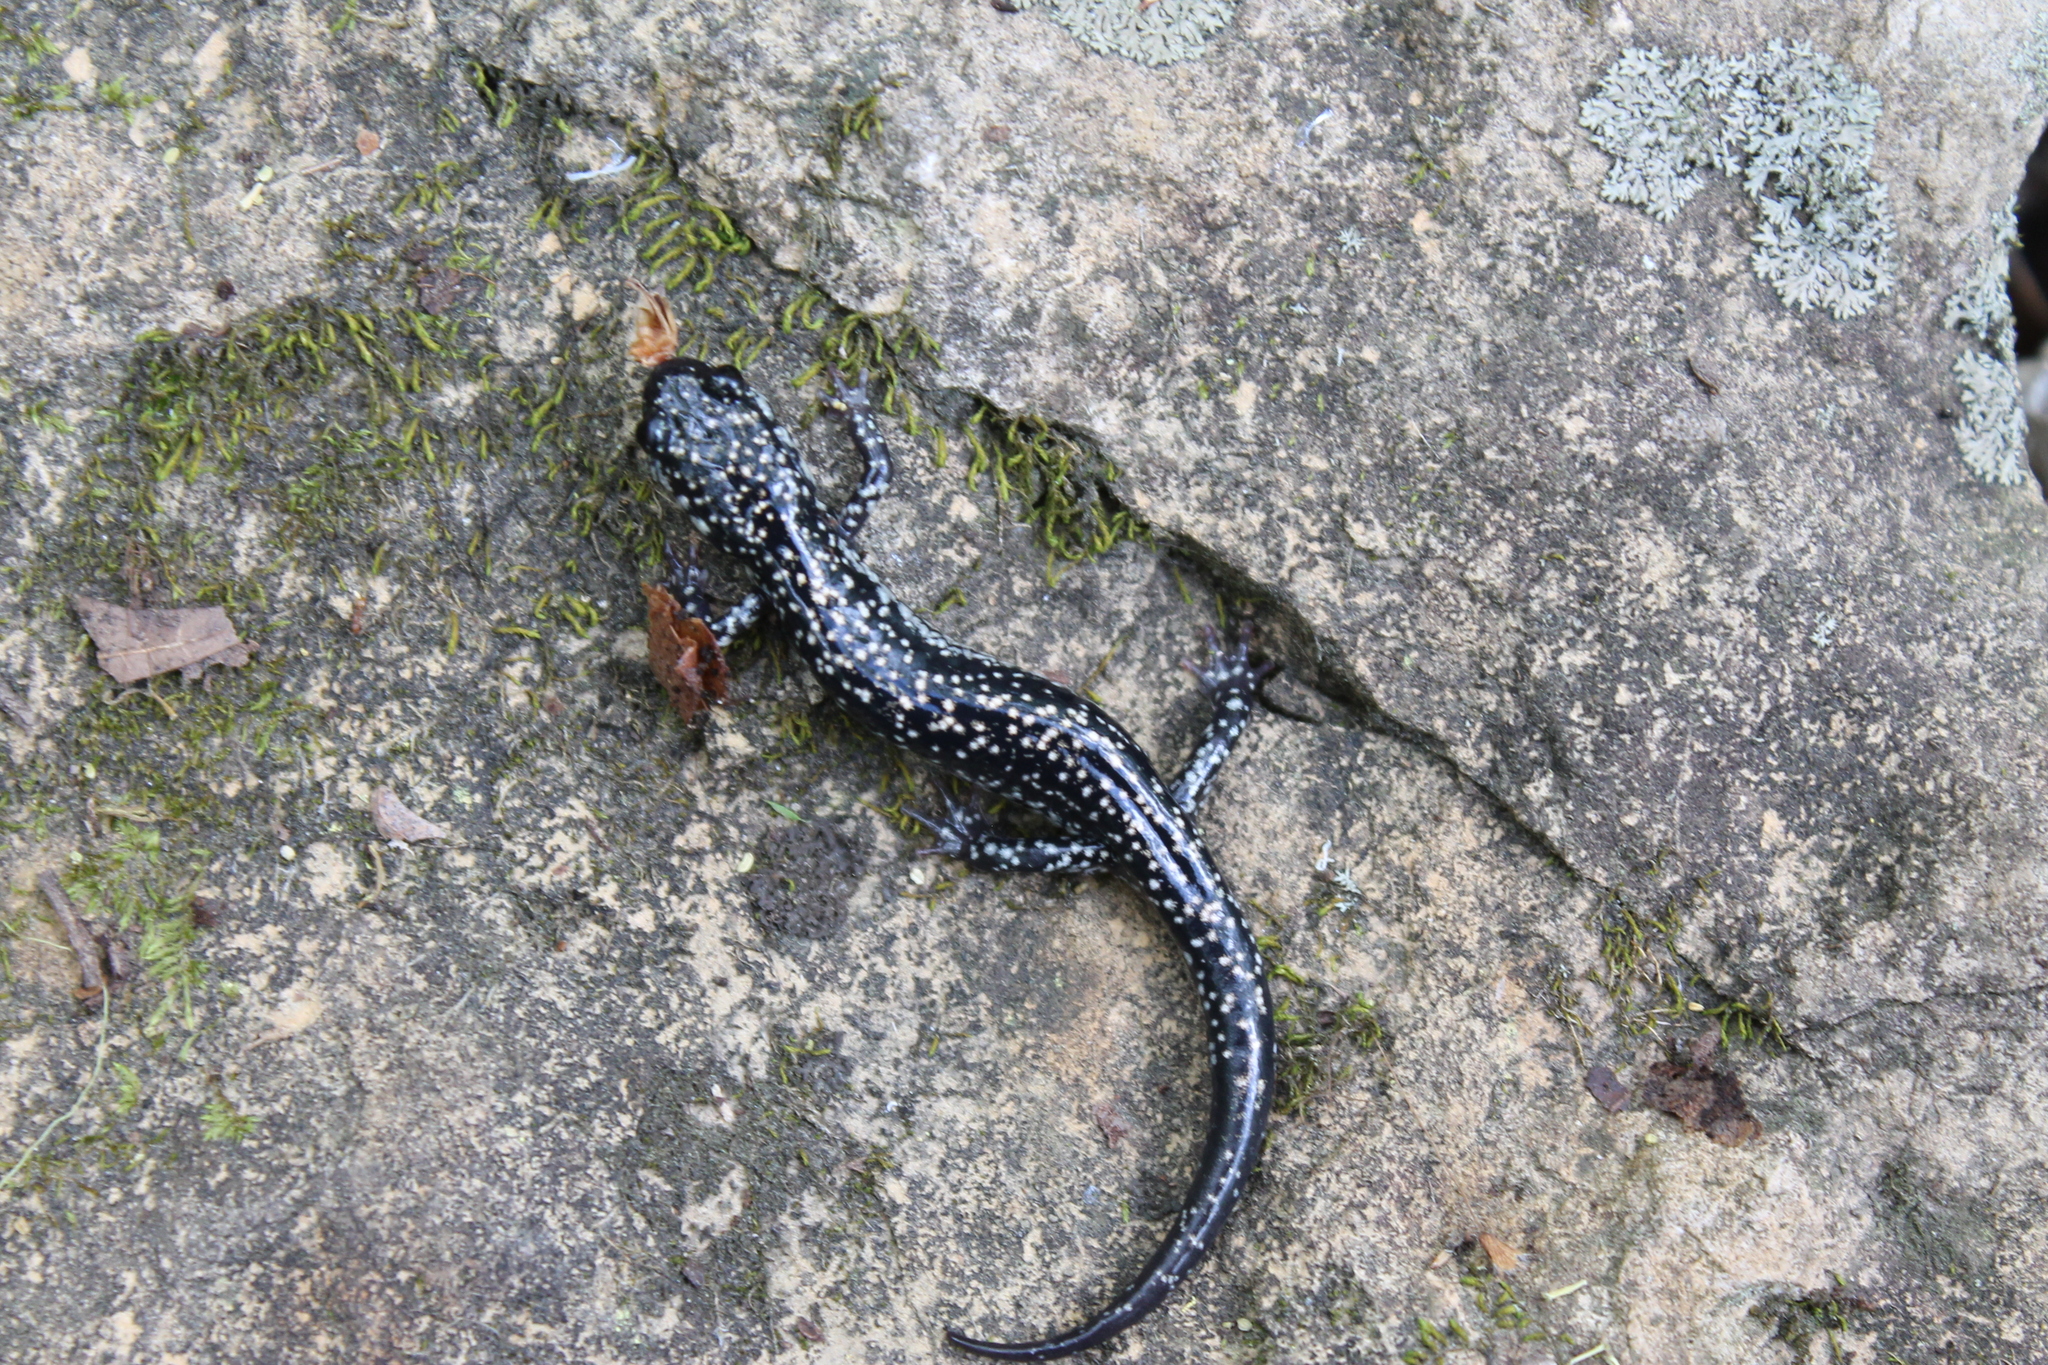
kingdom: Animalia
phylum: Chordata
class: Amphibia
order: Caudata
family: Plethodontidae
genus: Plethodon
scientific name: Plethodon glutinosus
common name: Northern slimy salamander
